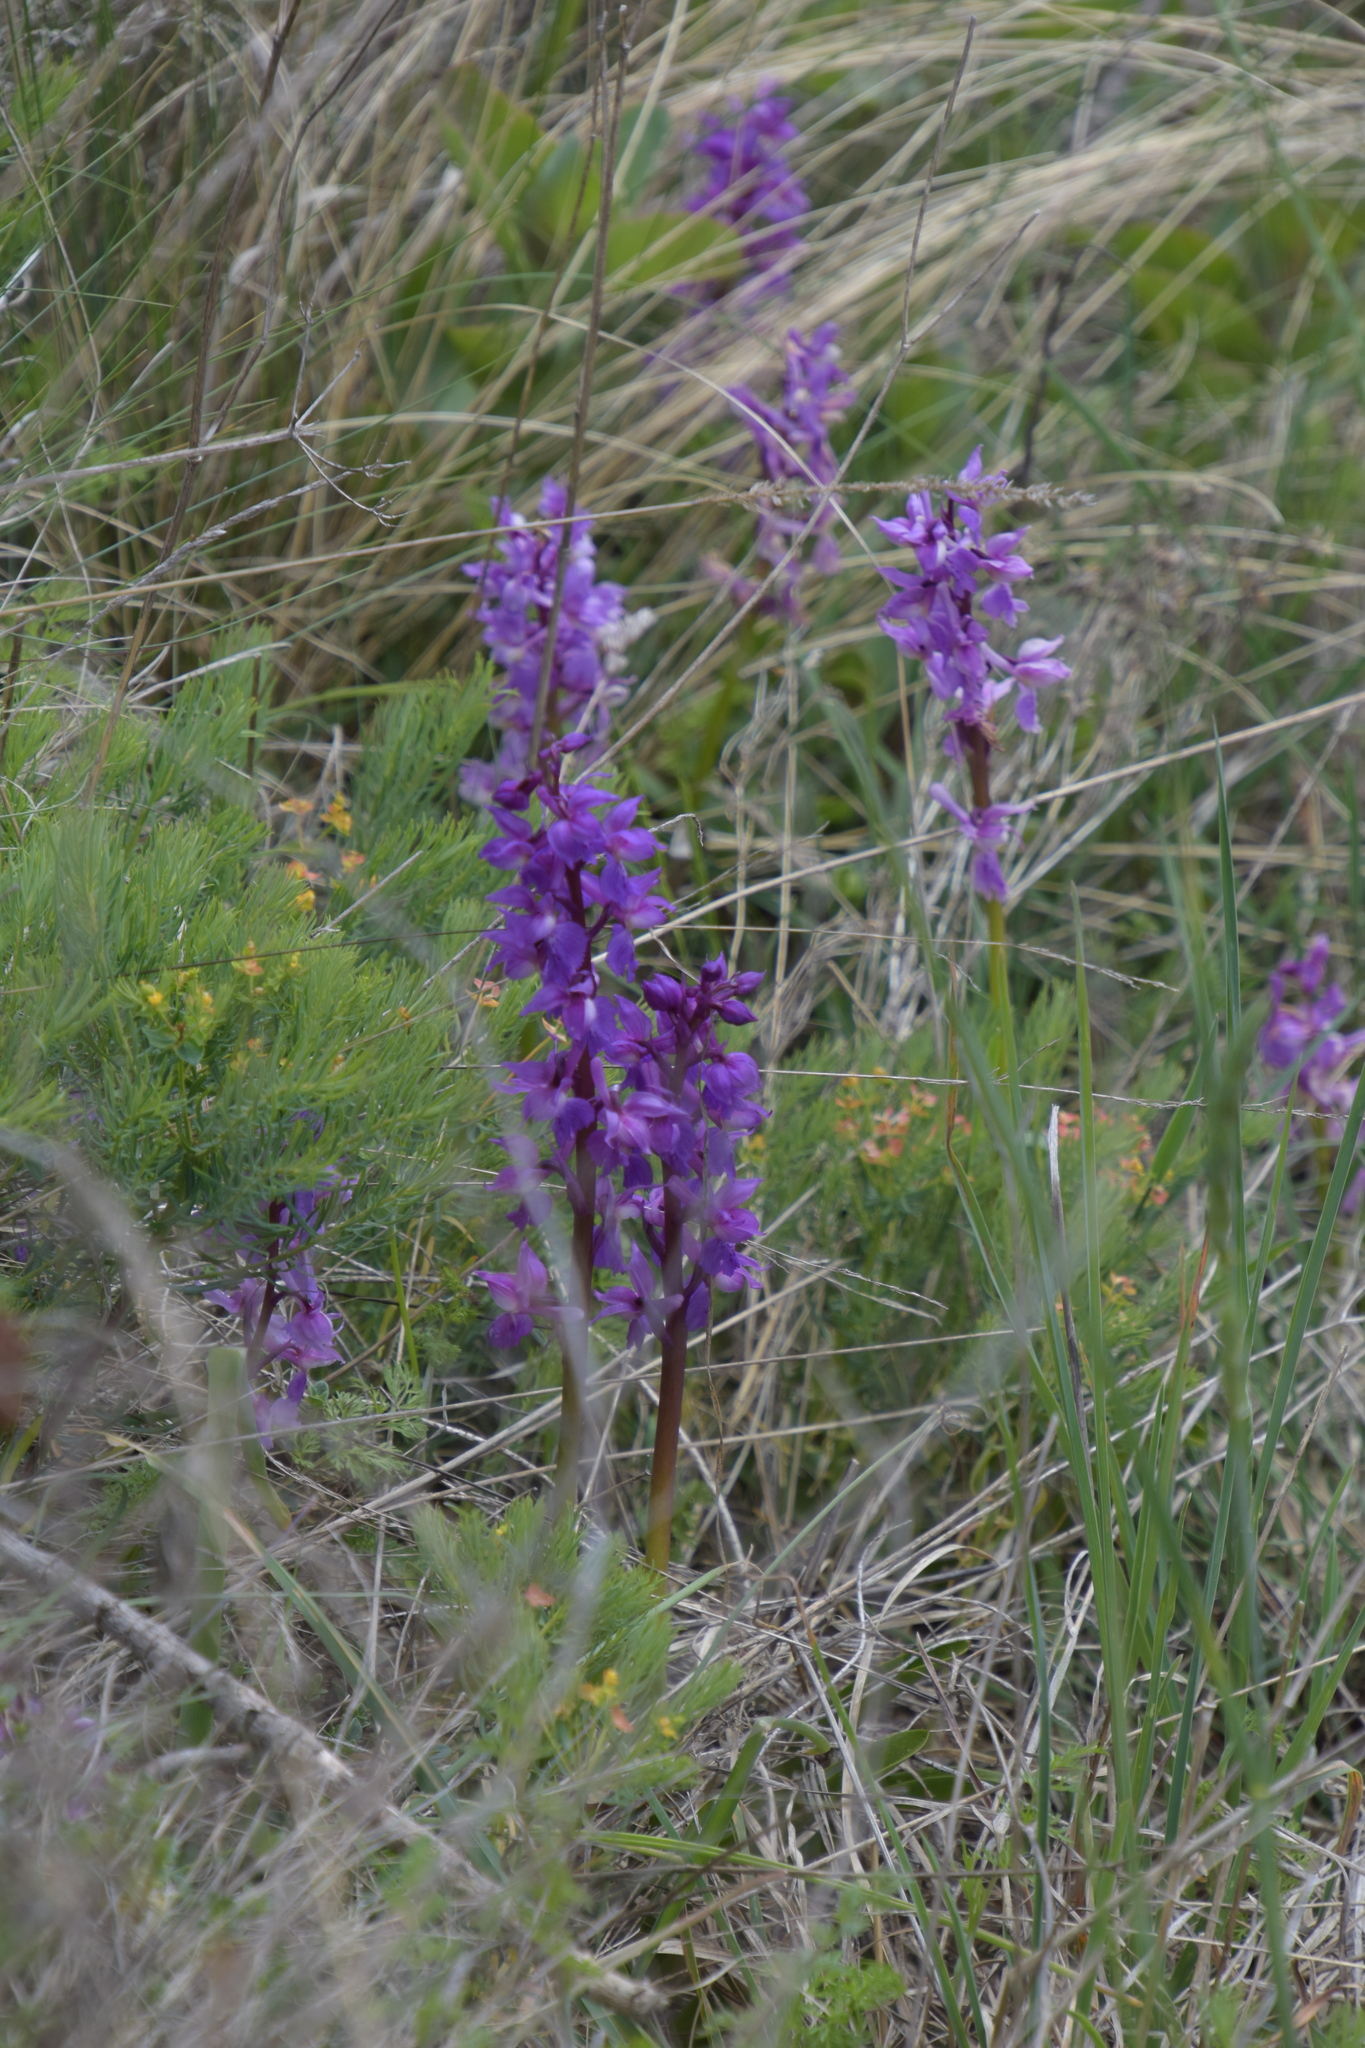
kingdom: Plantae
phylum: Tracheophyta
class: Liliopsida
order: Asparagales
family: Orchidaceae
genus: Anacamptis
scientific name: Anacamptis morio
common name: Green-winged orchid
